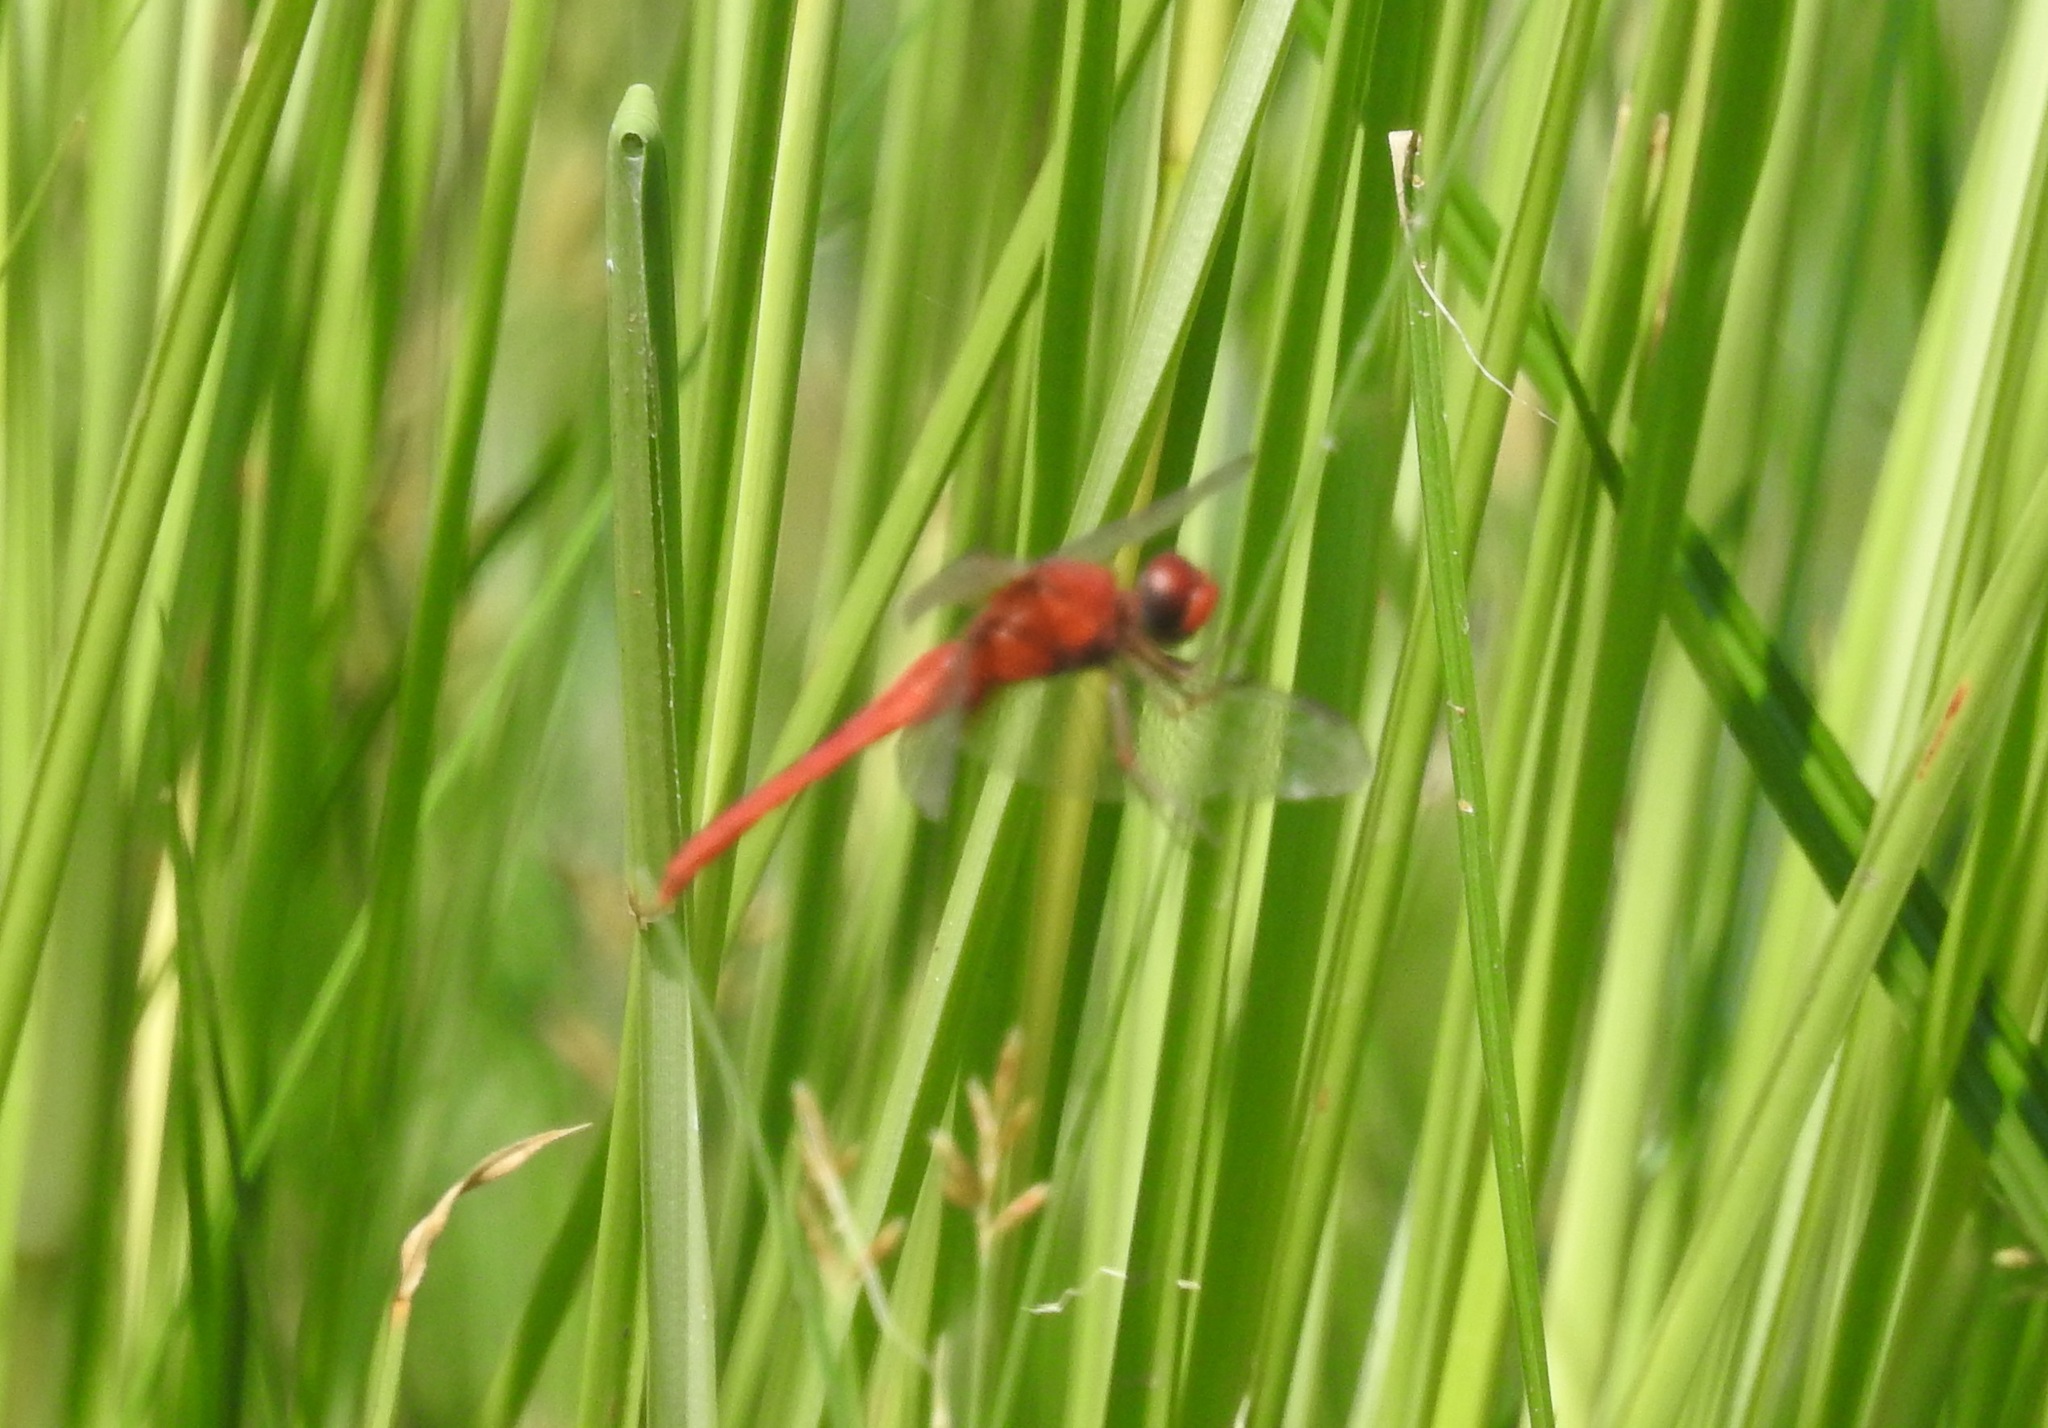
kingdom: Animalia
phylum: Arthropoda
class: Insecta
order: Odonata
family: Libellulidae
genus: Crocothemis
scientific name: Crocothemis servilia
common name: Scarlet skimmer
